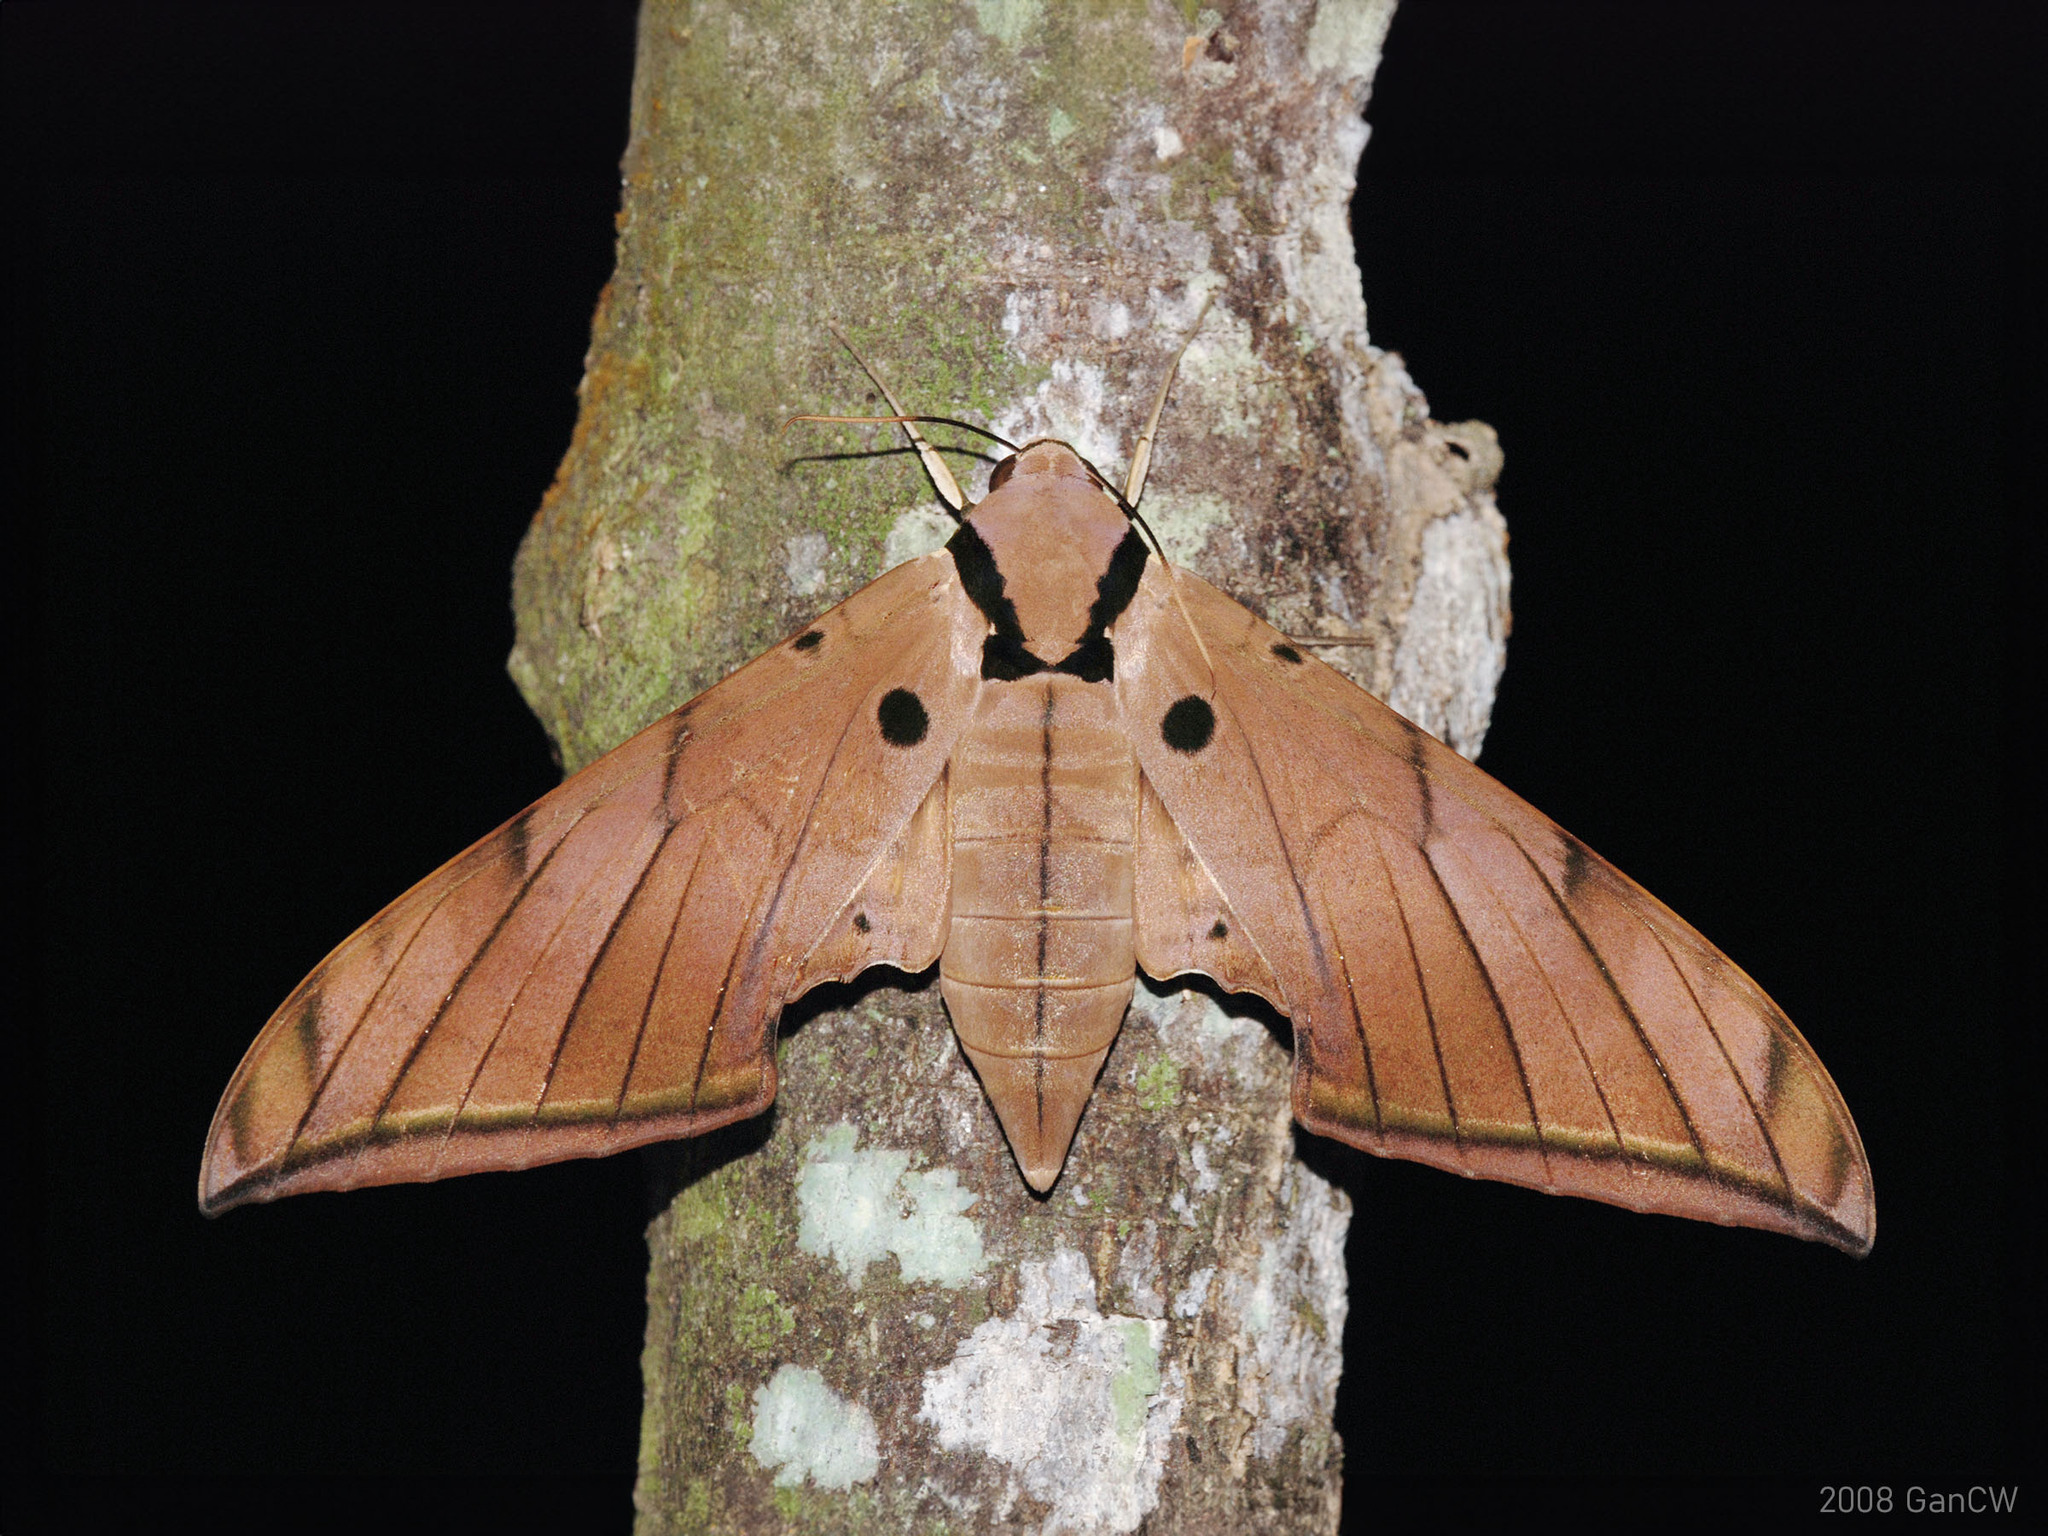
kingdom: Animalia
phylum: Arthropoda
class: Insecta
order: Lepidoptera
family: Sphingidae
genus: Ambulyx
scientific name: Ambulyx pryeri
